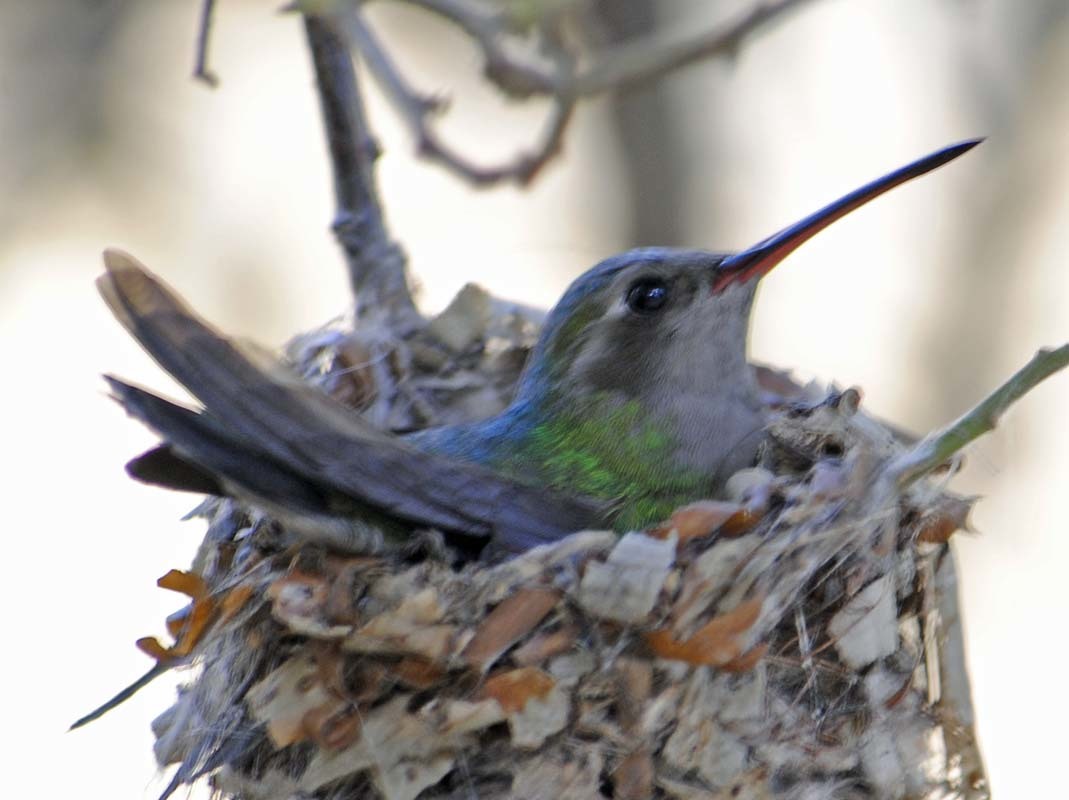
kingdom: Animalia
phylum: Chordata
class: Aves
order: Apodiformes
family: Trochilidae
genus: Cynanthus
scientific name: Cynanthus latirostris
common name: Broad-billed hummingbird
